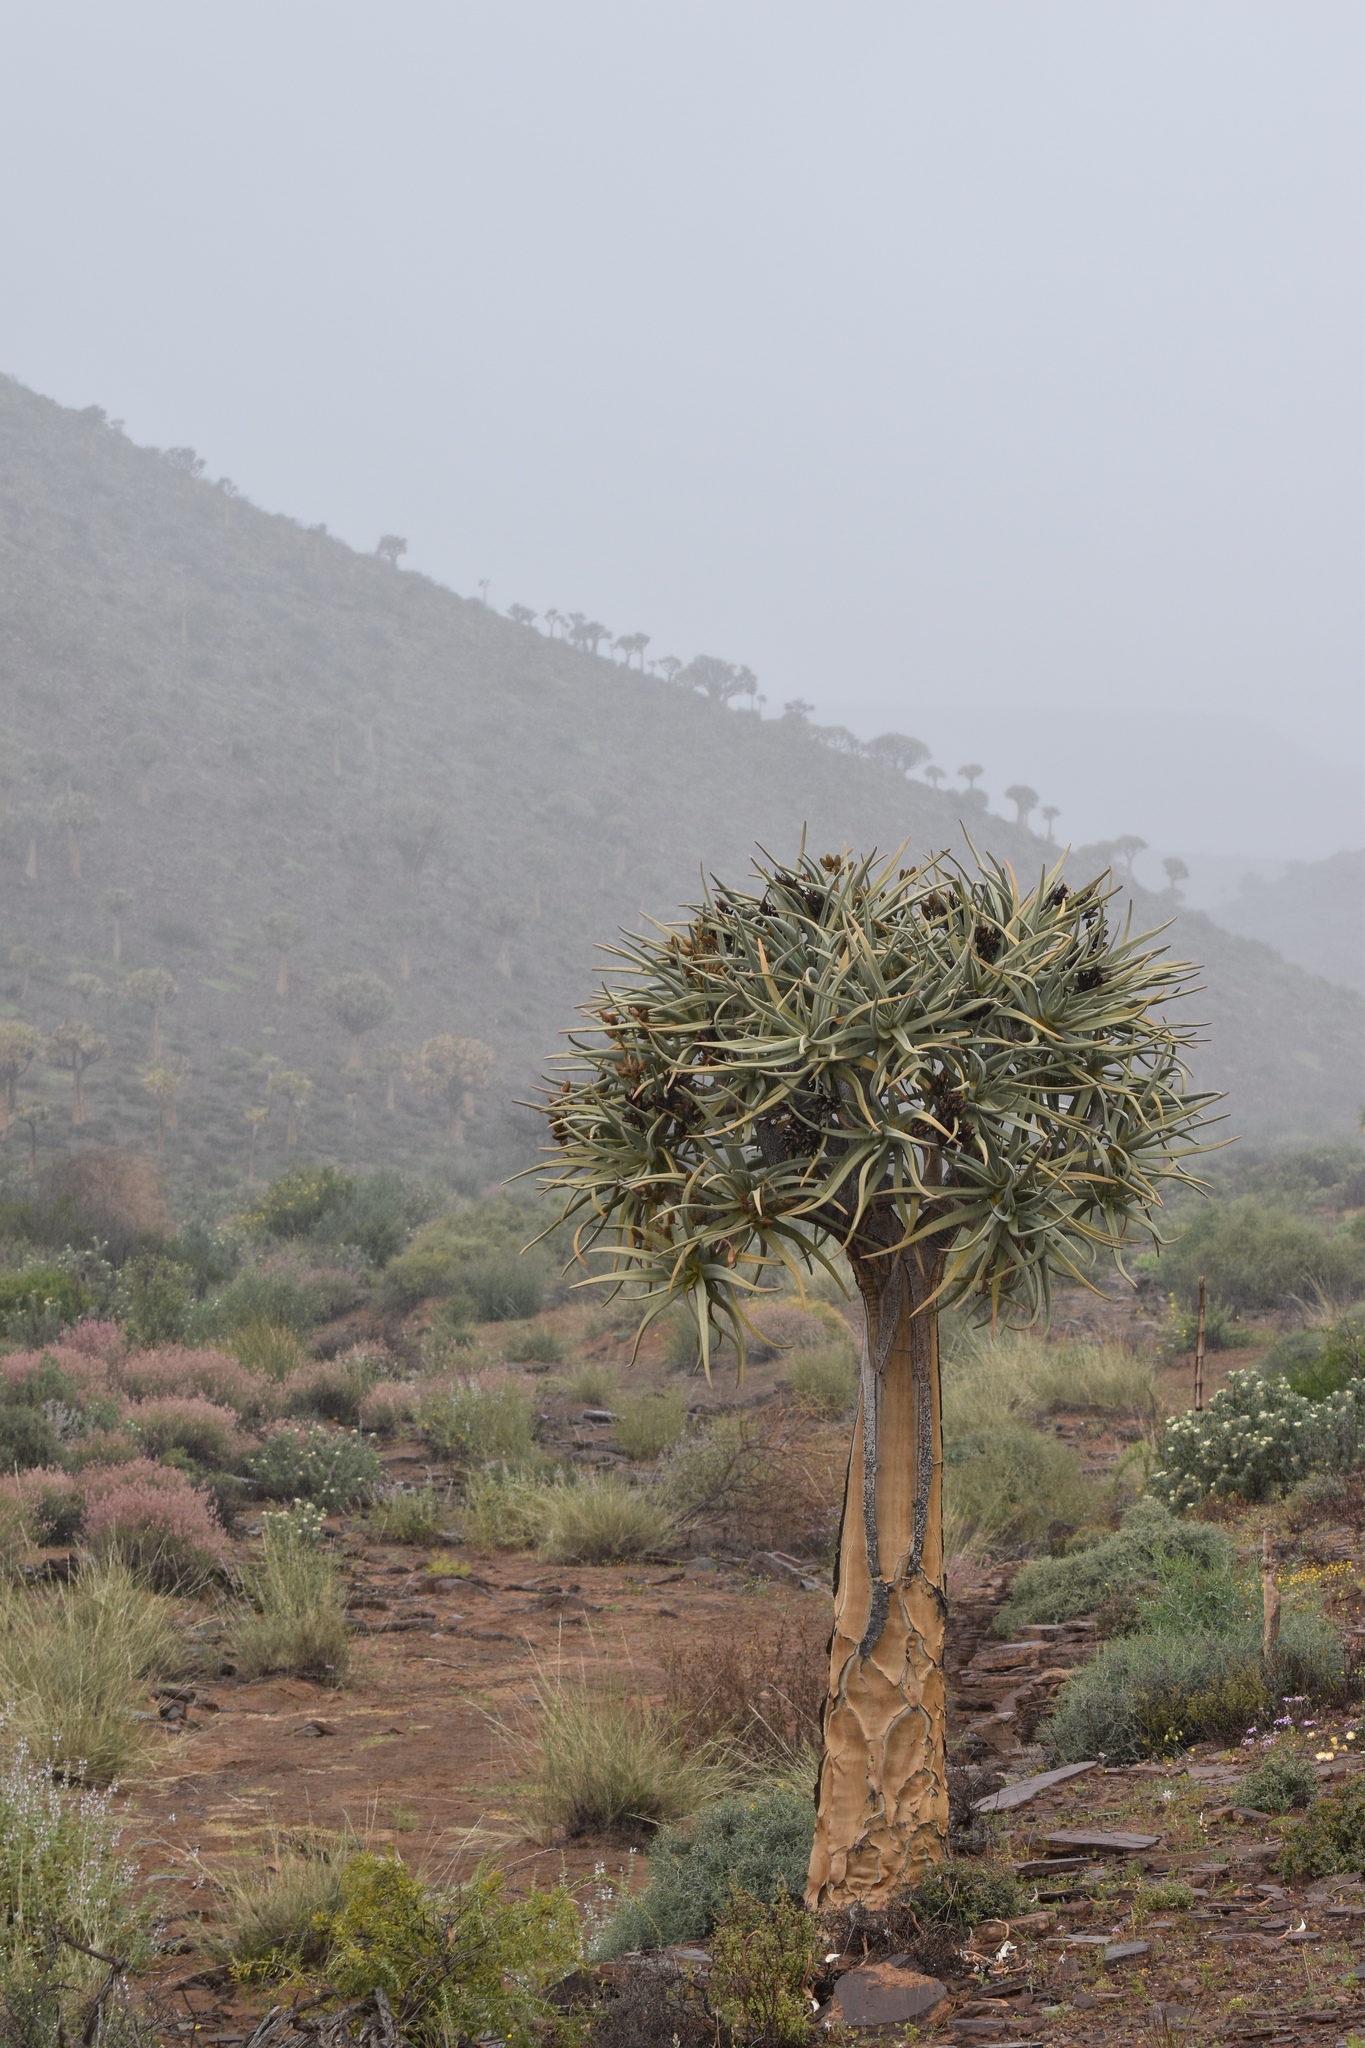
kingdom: Plantae
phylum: Tracheophyta
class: Liliopsida
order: Asparagales
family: Asphodelaceae
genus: Aloidendron
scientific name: Aloidendron dichotomum
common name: Quiver tree
